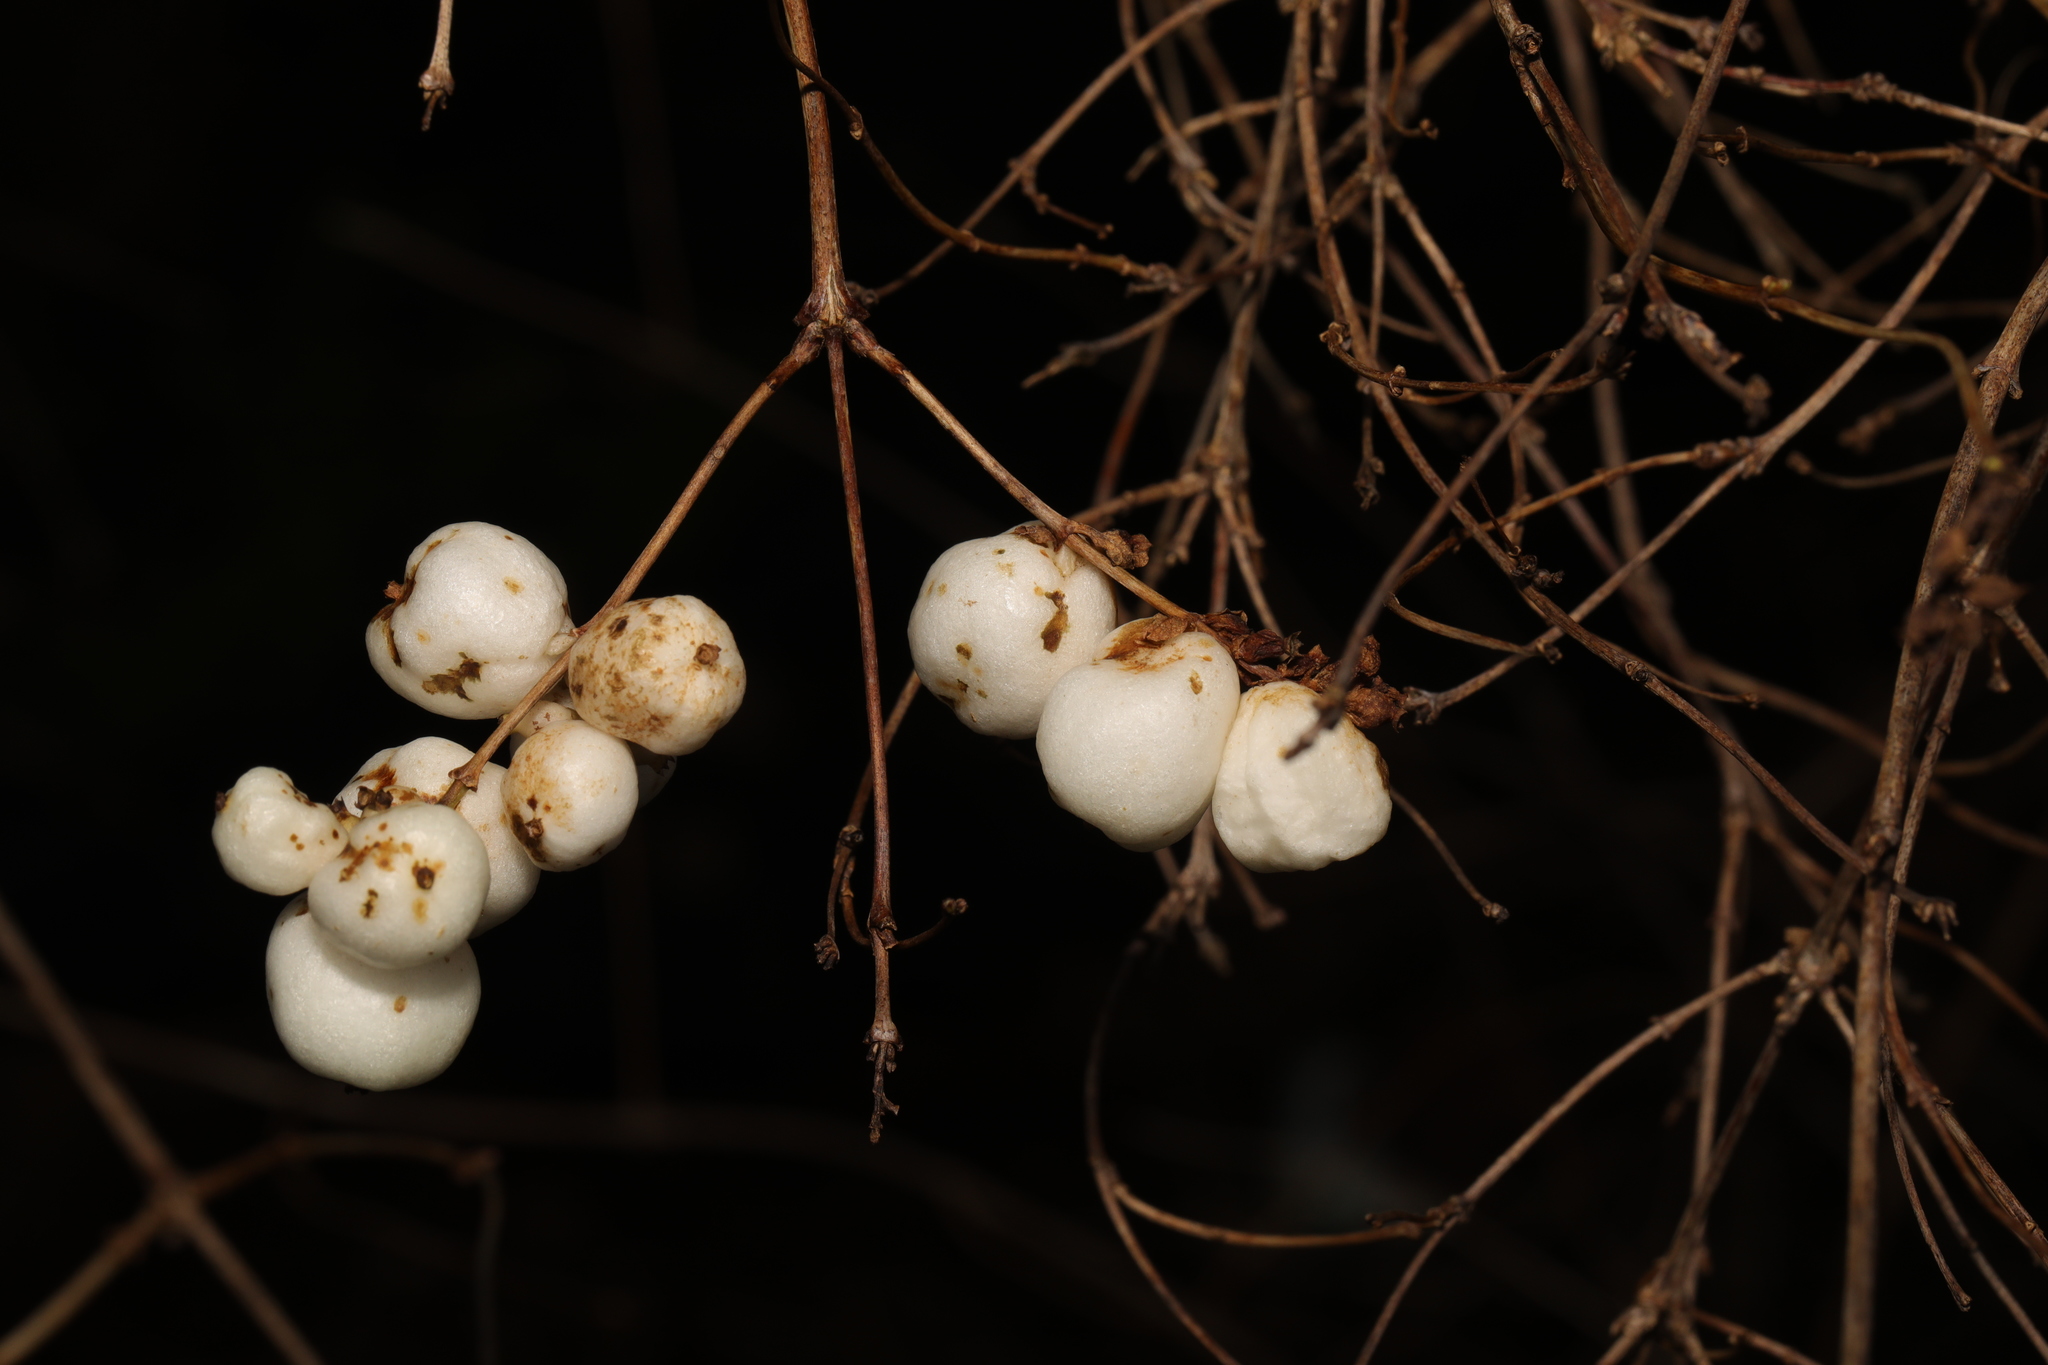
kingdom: Plantae
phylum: Tracheophyta
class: Magnoliopsida
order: Dipsacales
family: Caprifoliaceae
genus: Symphoricarpos
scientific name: Symphoricarpos albus
